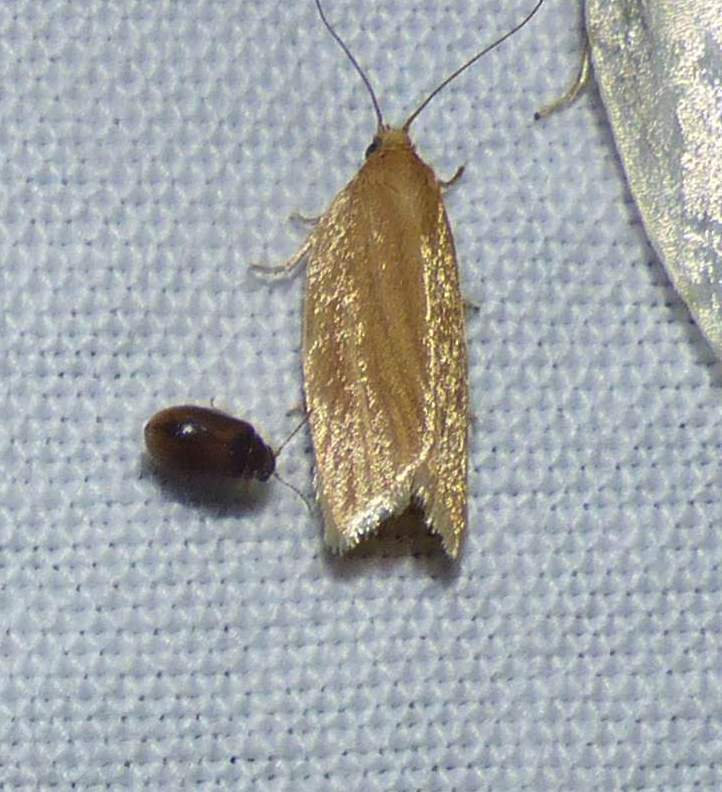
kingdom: Animalia
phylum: Arthropoda
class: Insecta
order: Lepidoptera
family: Tortricidae
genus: Clepsis
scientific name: Clepsis clemensiana
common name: Clemens' clepsis moth
